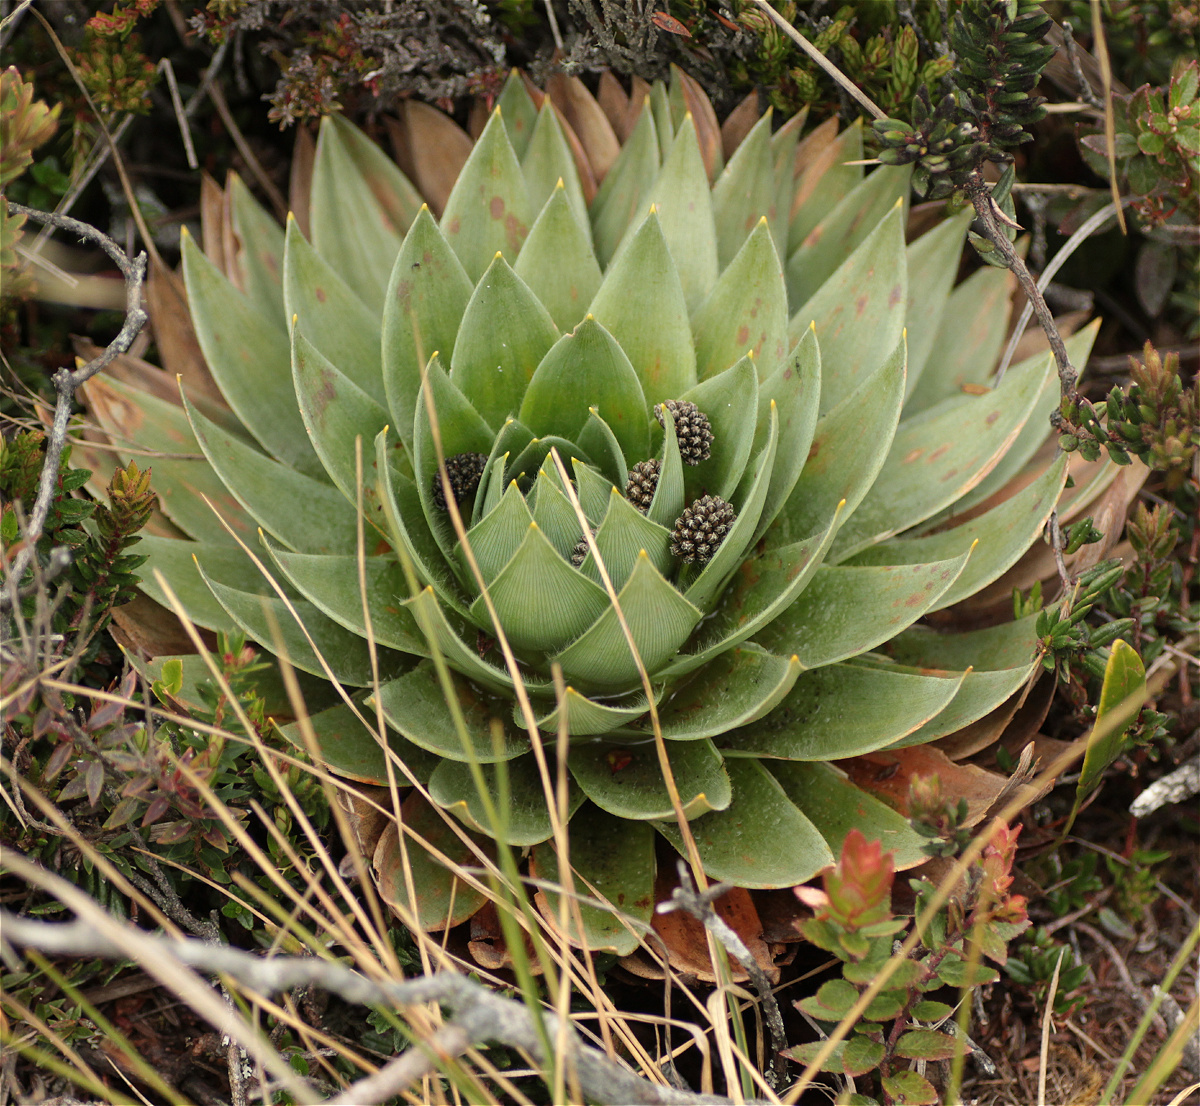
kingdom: Plantae
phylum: Tracheophyta
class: Liliopsida
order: Poales
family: Eriocaulaceae
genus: Paepalanthus
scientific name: Paepalanthus alpinus
